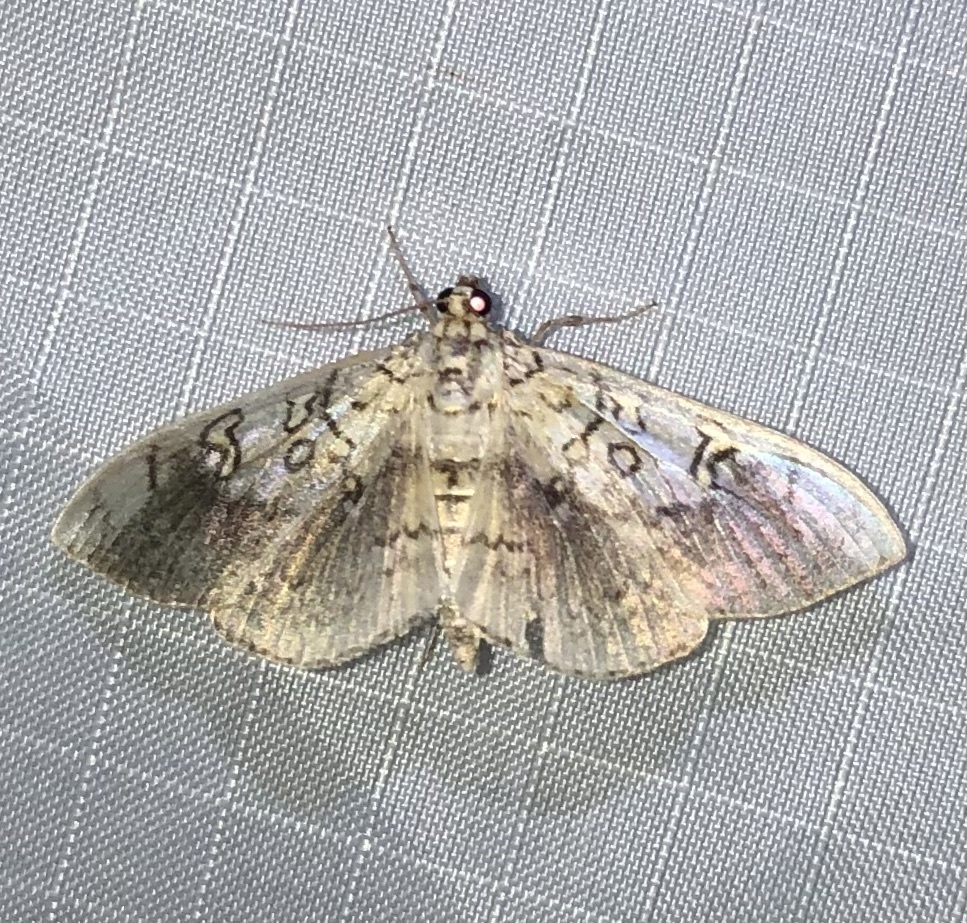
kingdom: Animalia
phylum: Arthropoda
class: Insecta
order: Lepidoptera
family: Crambidae
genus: Pantographa
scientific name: Pantographa limata
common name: Basswood leafroller moth
